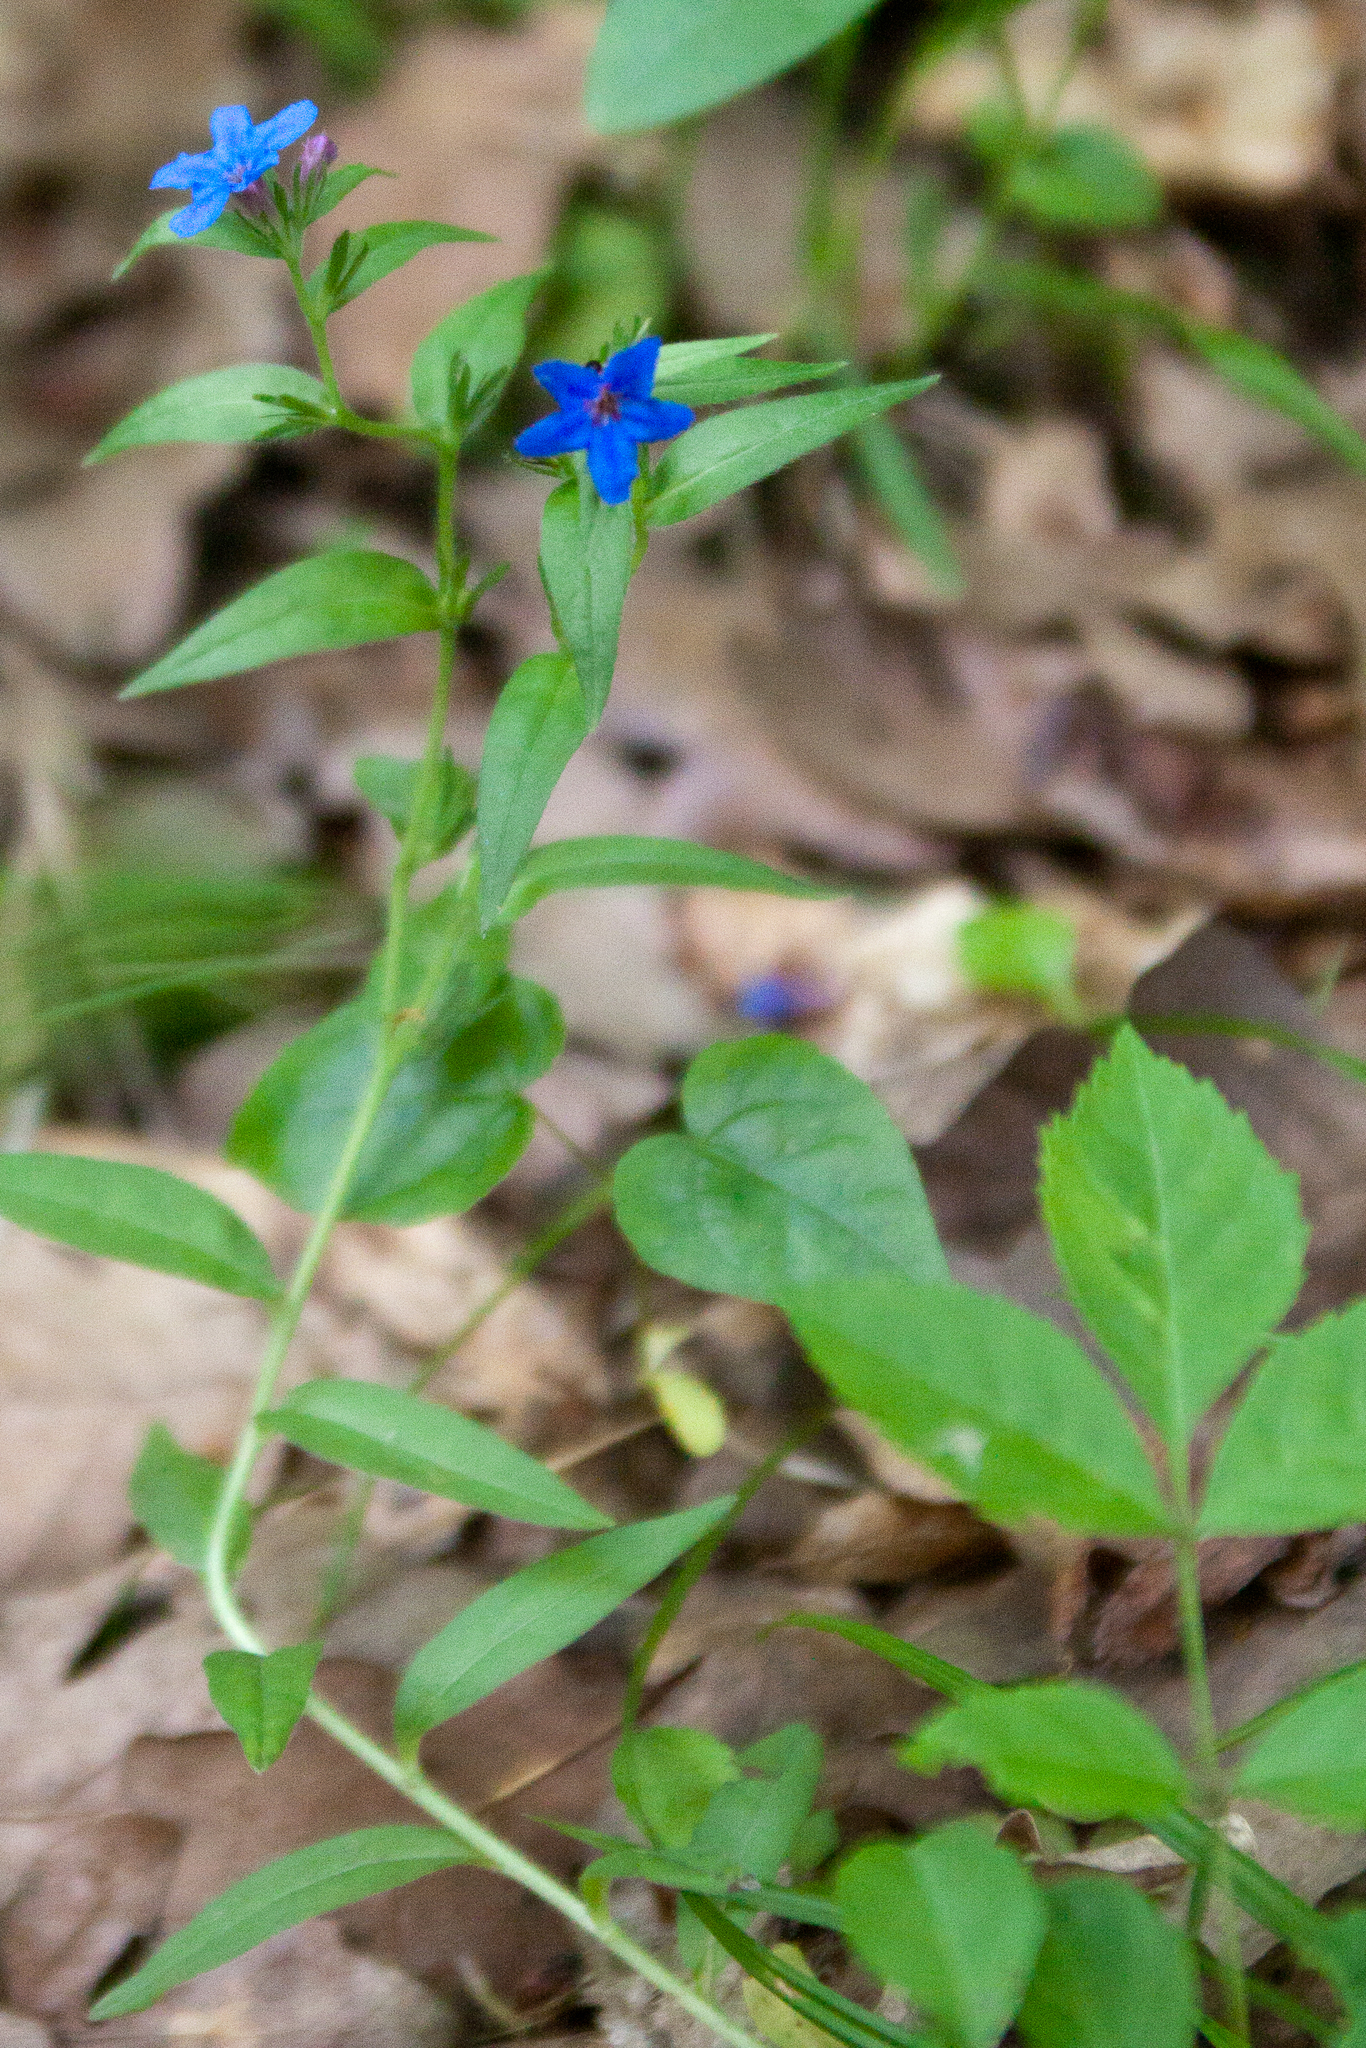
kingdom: Plantae
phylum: Tracheophyta
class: Magnoliopsida
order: Boraginales
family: Boraginaceae
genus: Aegonychon
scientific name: Aegonychon purpurocaeruleum
